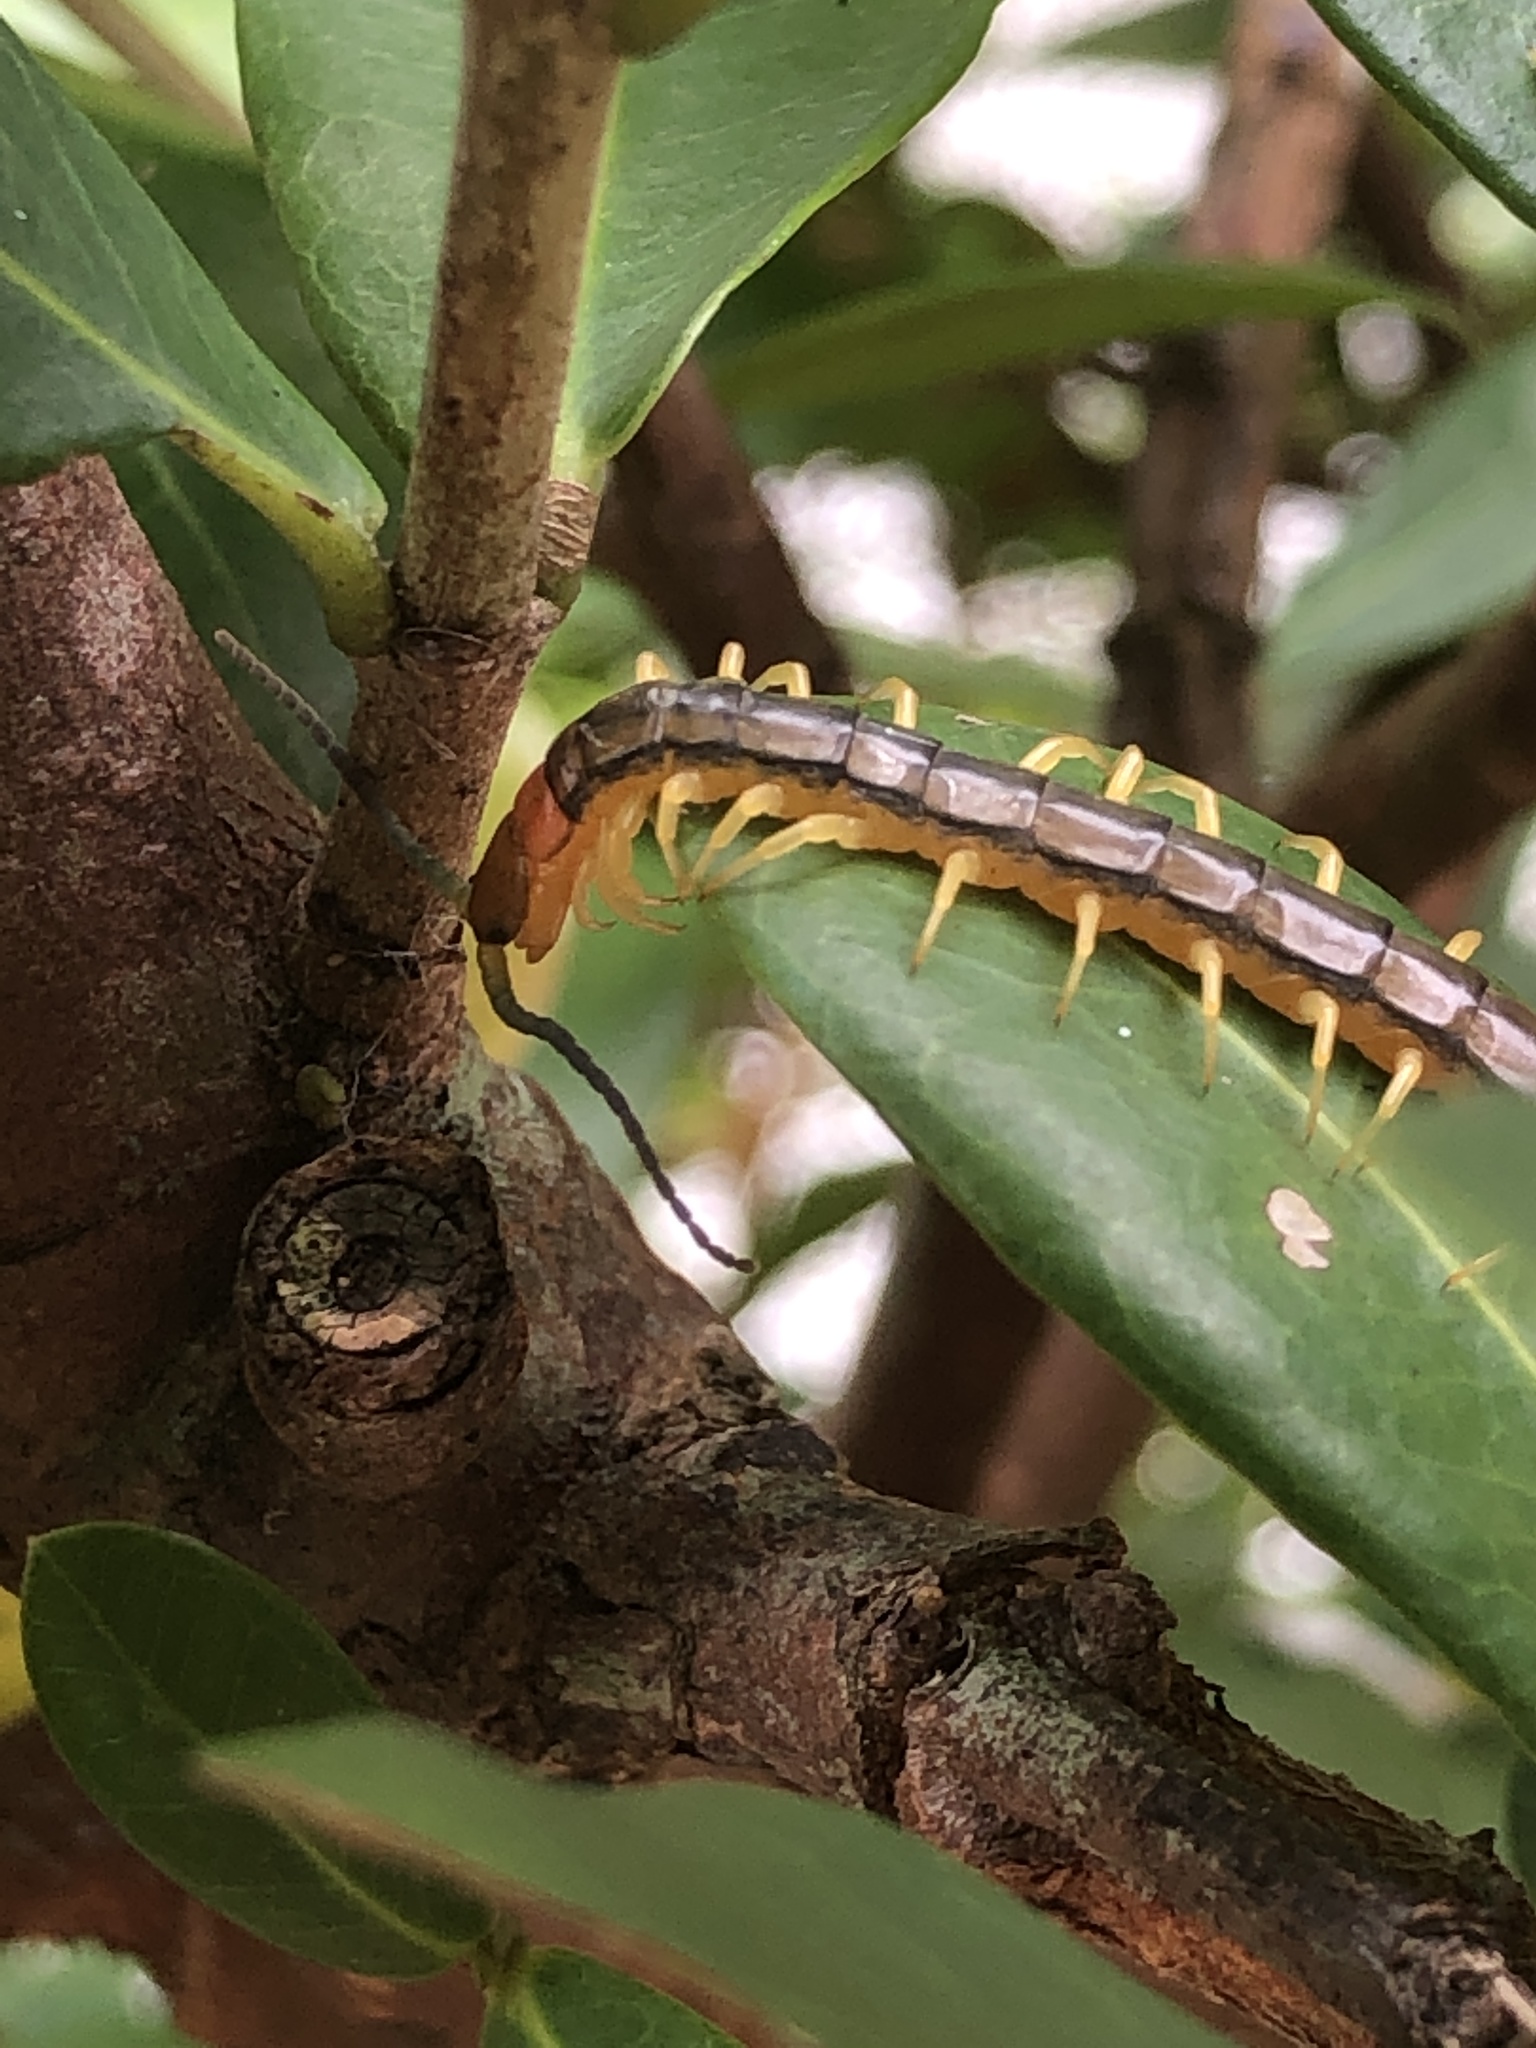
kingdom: Animalia
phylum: Arthropoda
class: Chilopoda
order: Scolopendromorpha
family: Scolopendridae
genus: Scolopendra
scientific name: Scolopendra mutilans
